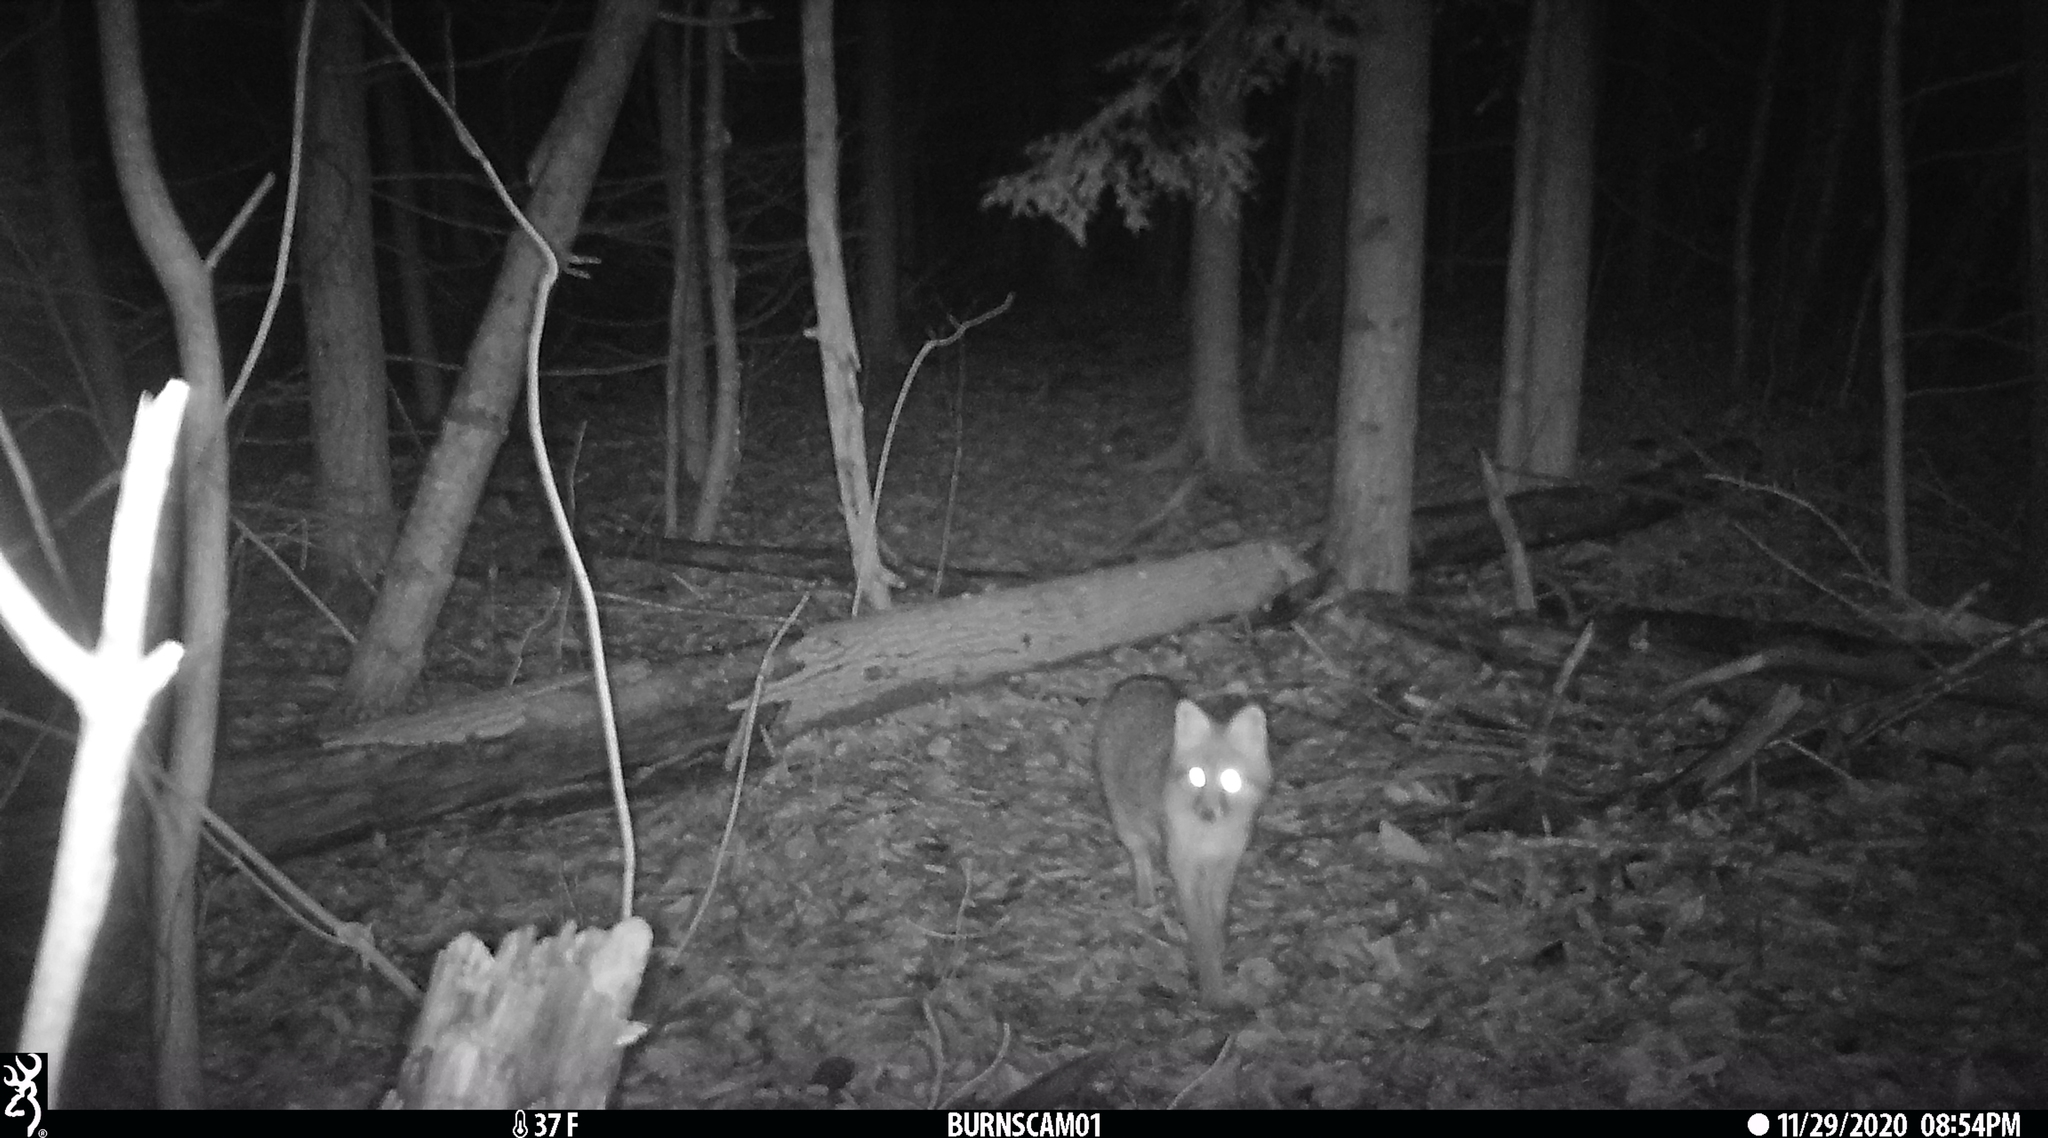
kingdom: Animalia
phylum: Chordata
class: Mammalia
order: Carnivora
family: Canidae
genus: Urocyon
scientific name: Urocyon cinereoargenteus
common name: Gray fox
